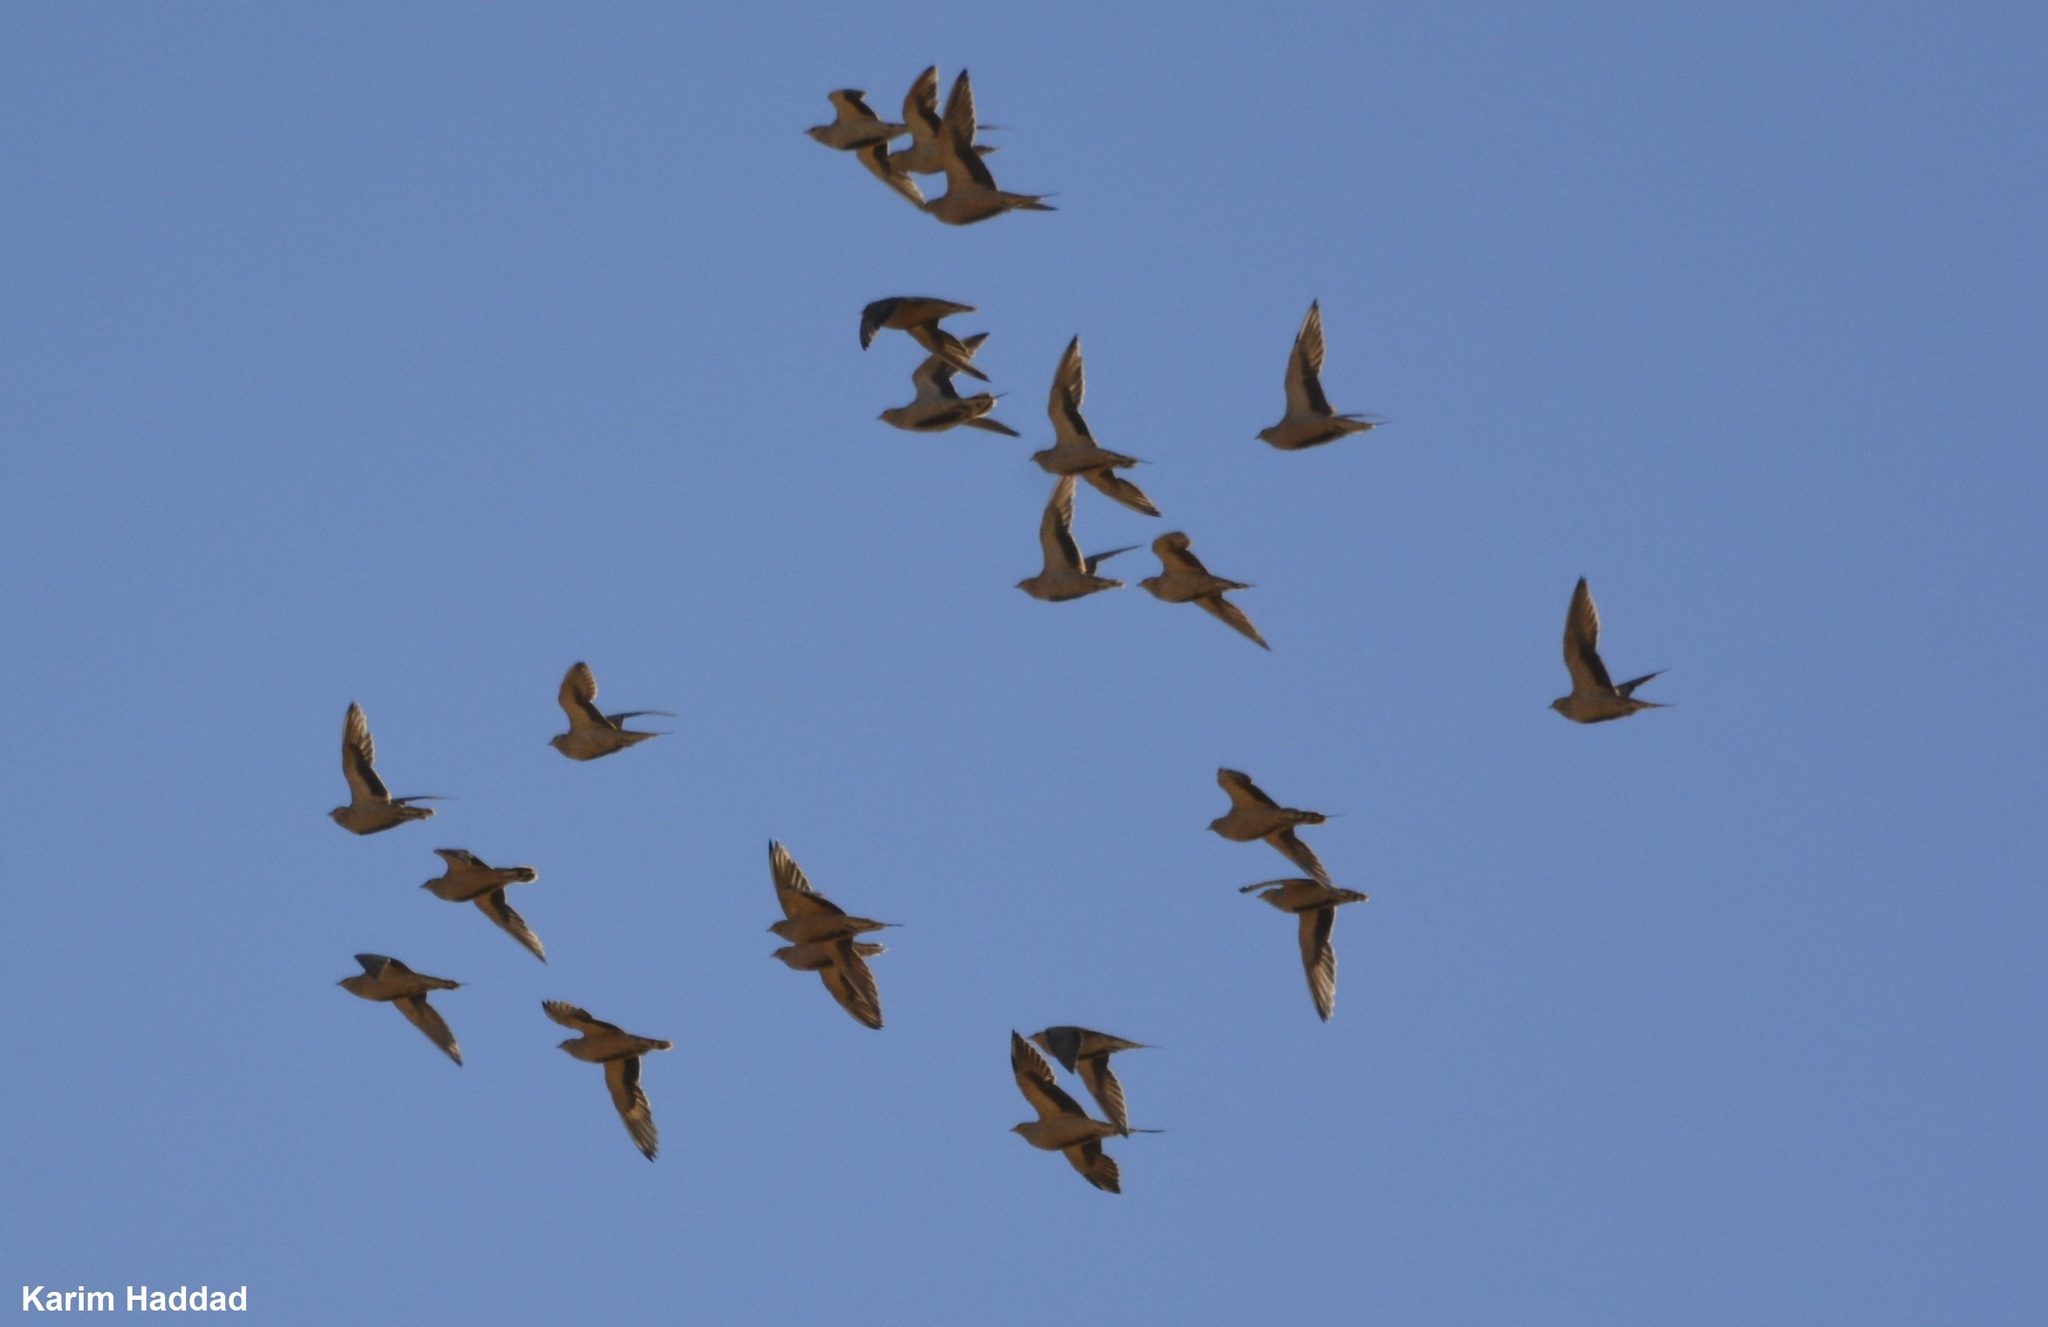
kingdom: Animalia
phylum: Chordata
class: Aves
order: Pteroclidiformes
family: Pteroclididae
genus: Pterocles
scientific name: Pterocles senegallus
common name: Spotted sandgrouse
